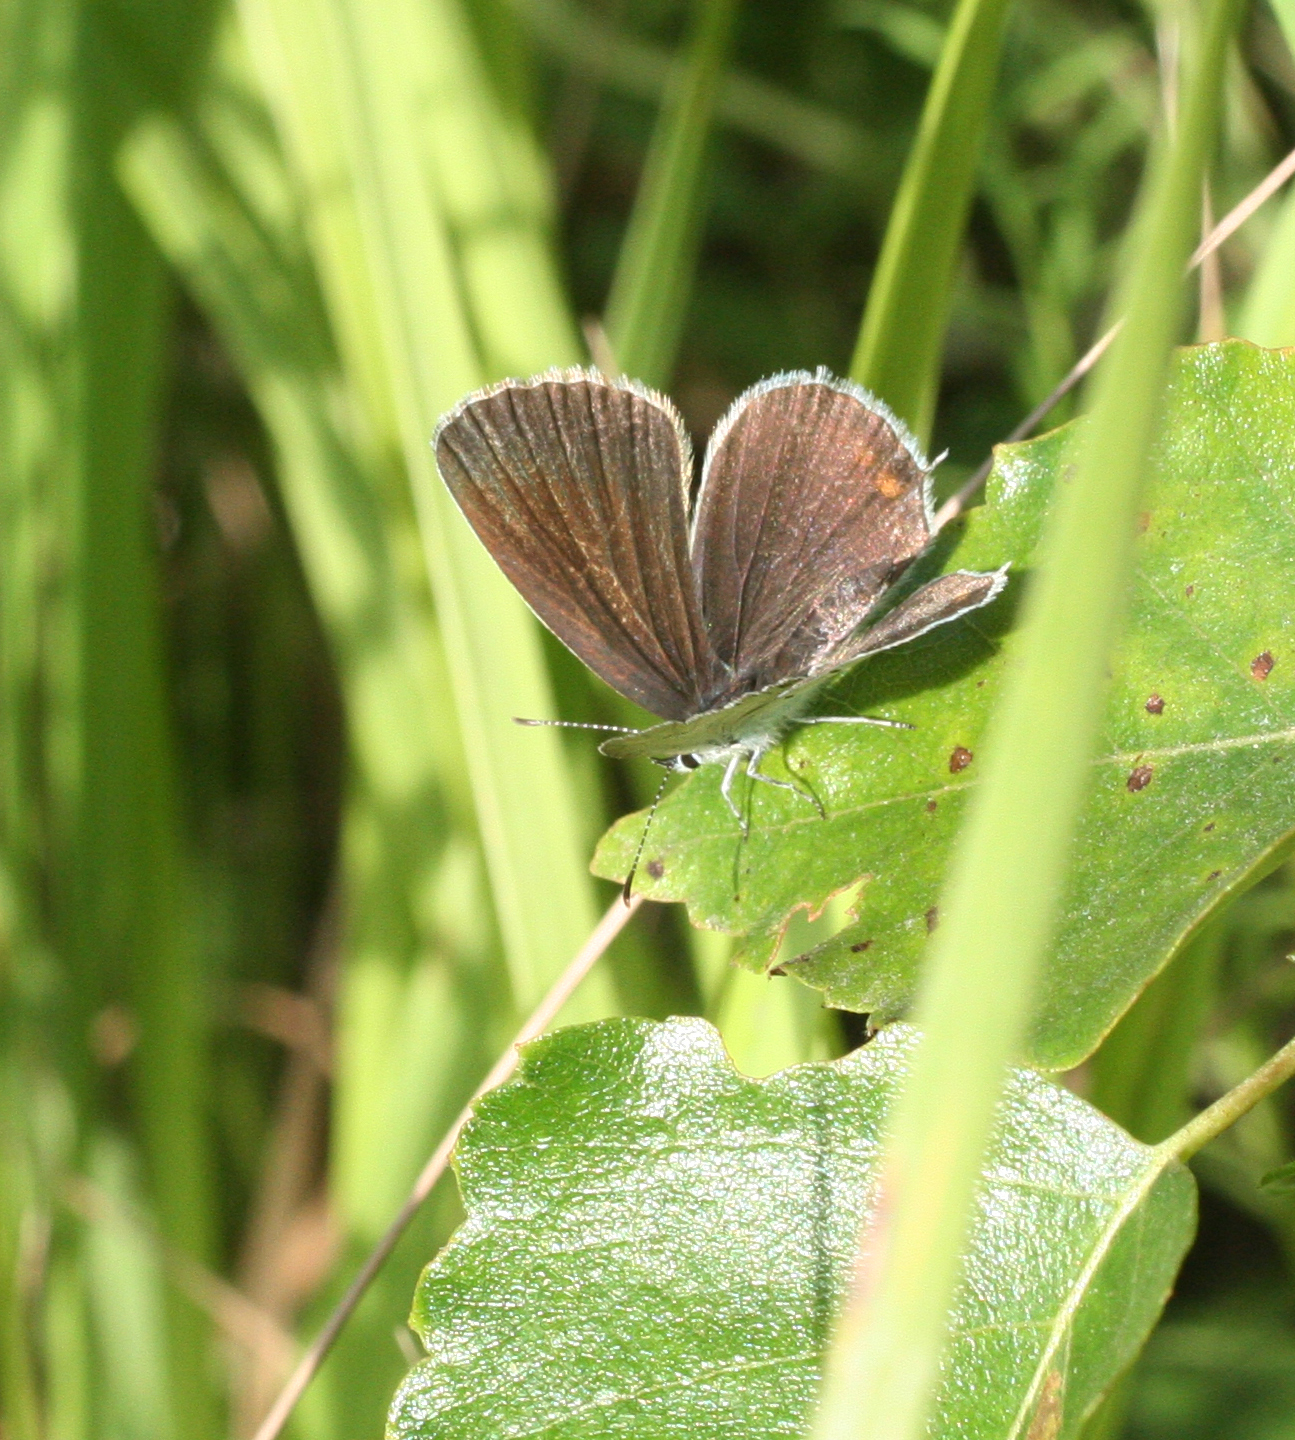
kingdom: Animalia
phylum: Arthropoda
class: Insecta
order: Lepidoptera
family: Lycaenidae
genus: Elkalyce
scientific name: Elkalyce argiades
